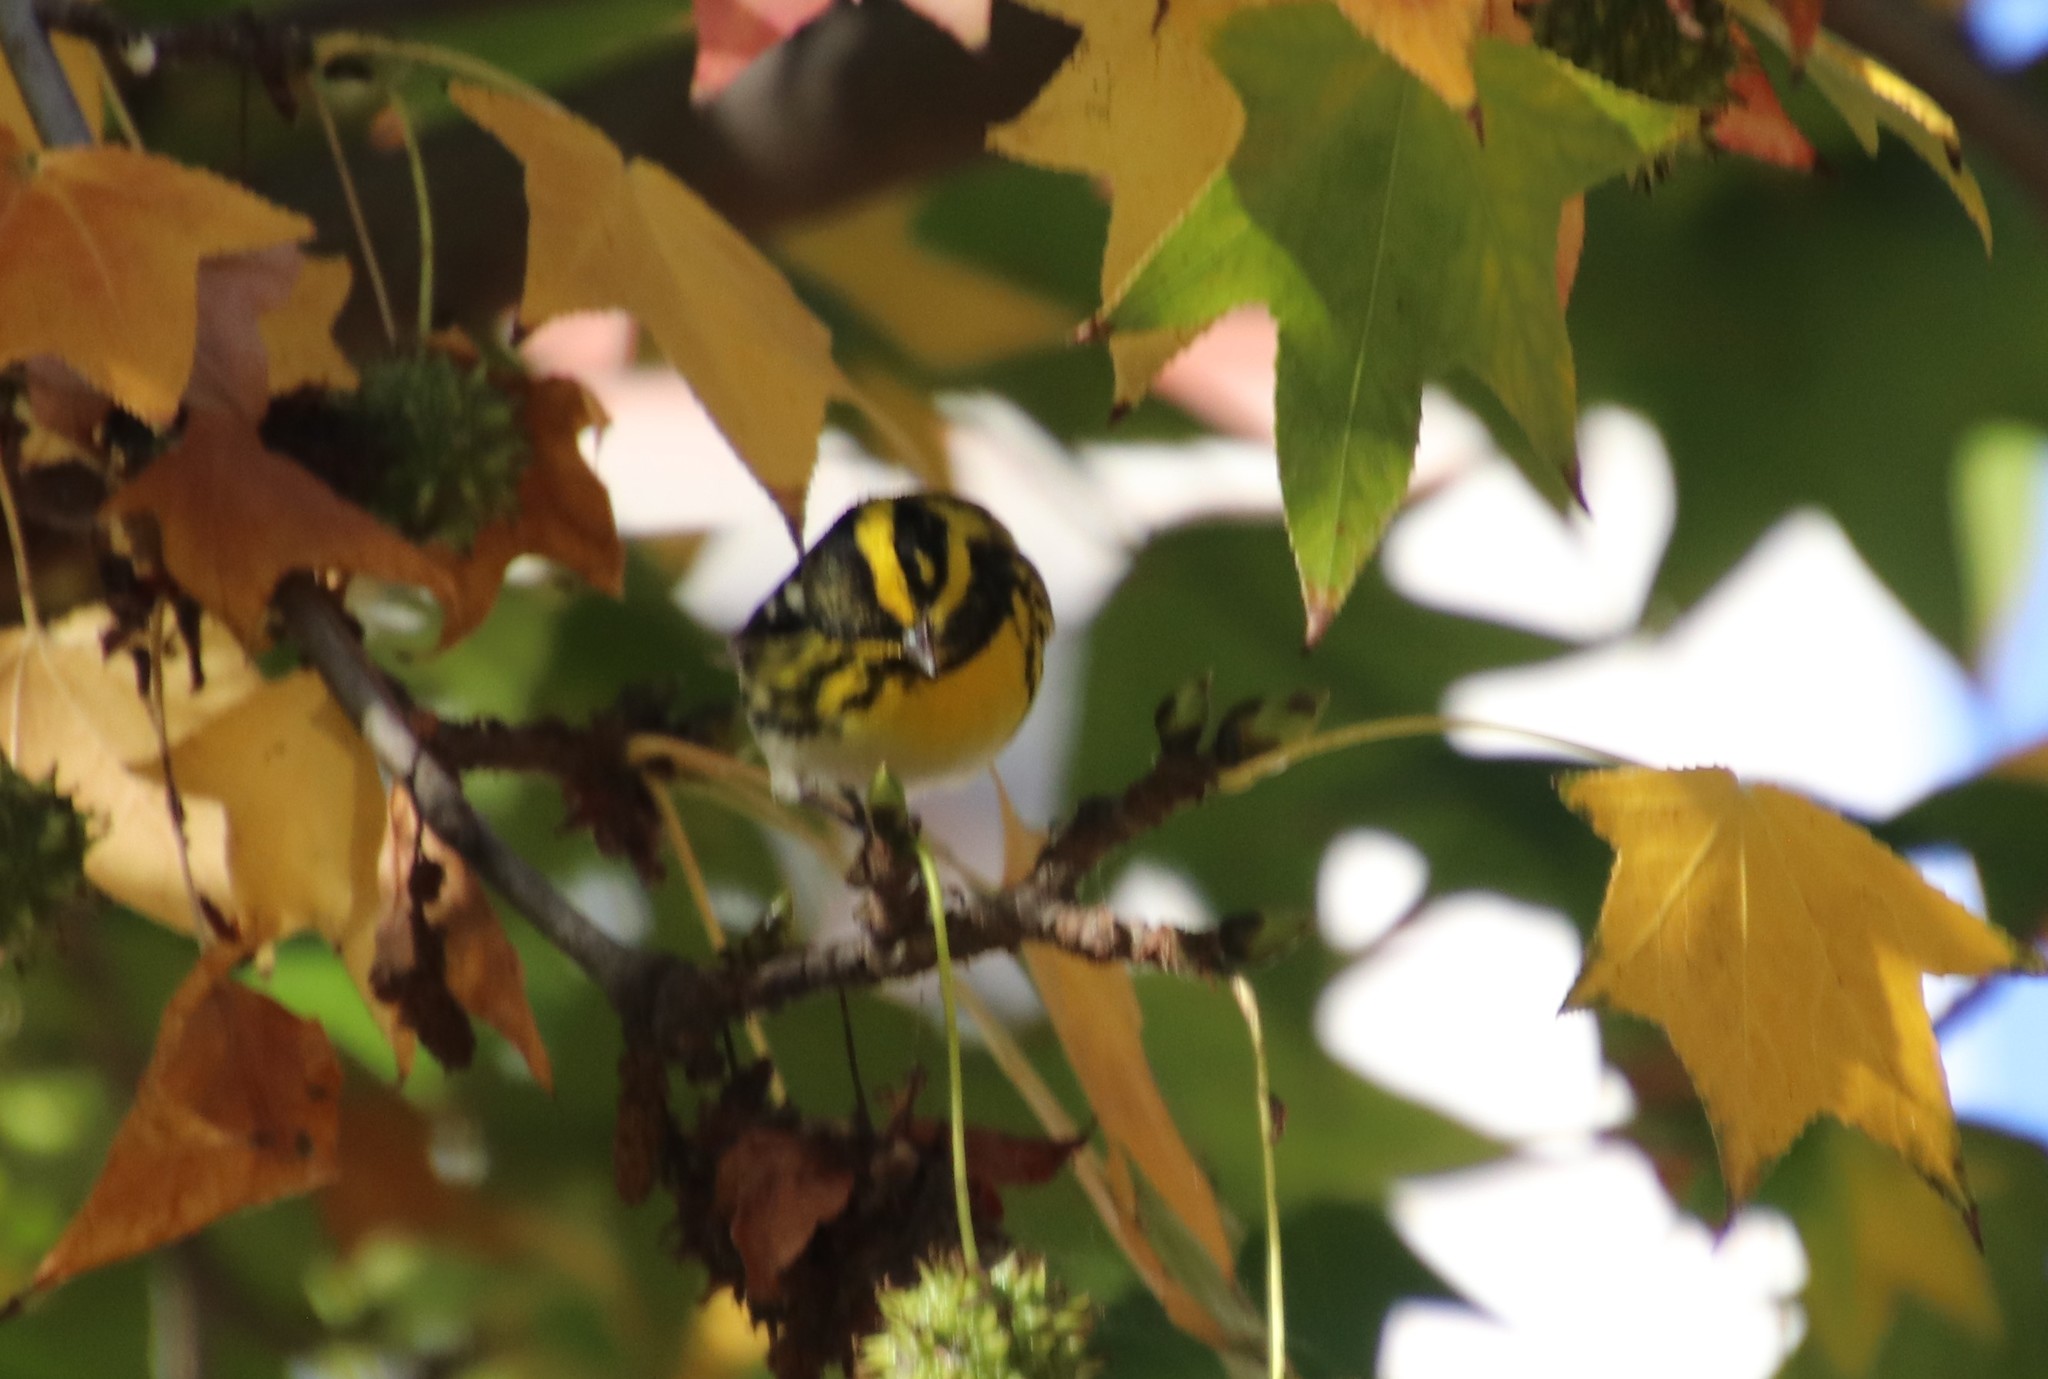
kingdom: Animalia
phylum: Chordata
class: Aves
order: Passeriformes
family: Parulidae
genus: Setophaga
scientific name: Setophaga townsendi
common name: Townsend's warbler
